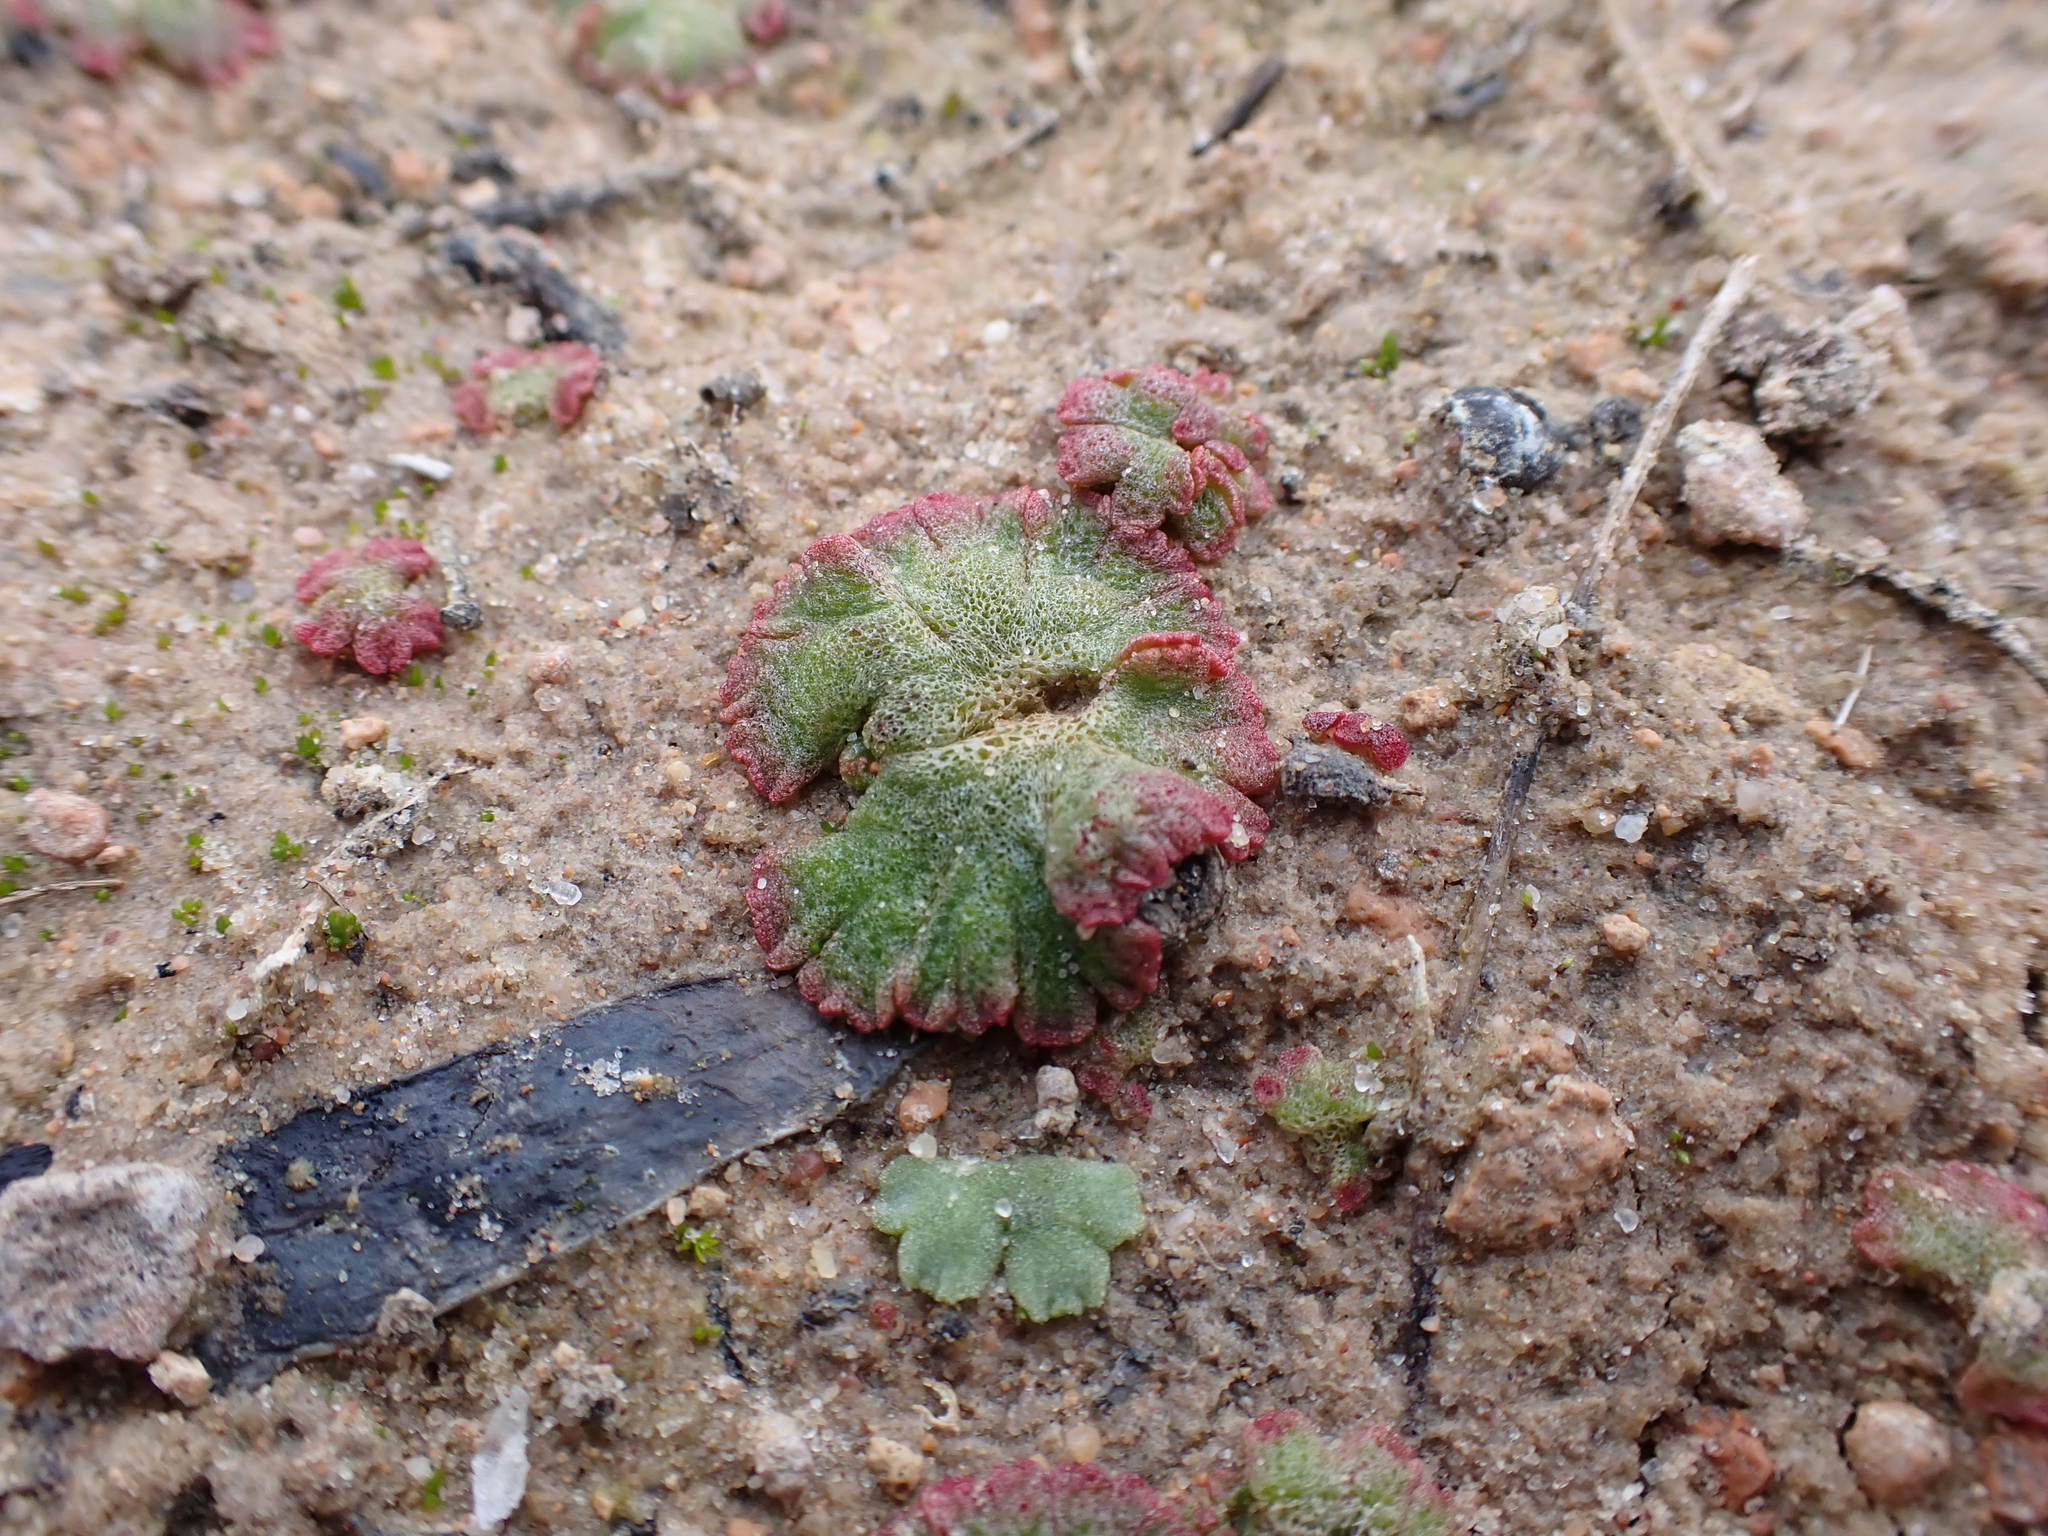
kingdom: Plantae
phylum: Marchantiophyta
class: Marchantiopsida
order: Marchantiales
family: Ricciaceae
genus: Riccia
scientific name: Riccia cavernosa
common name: Cavernous crystalwort
